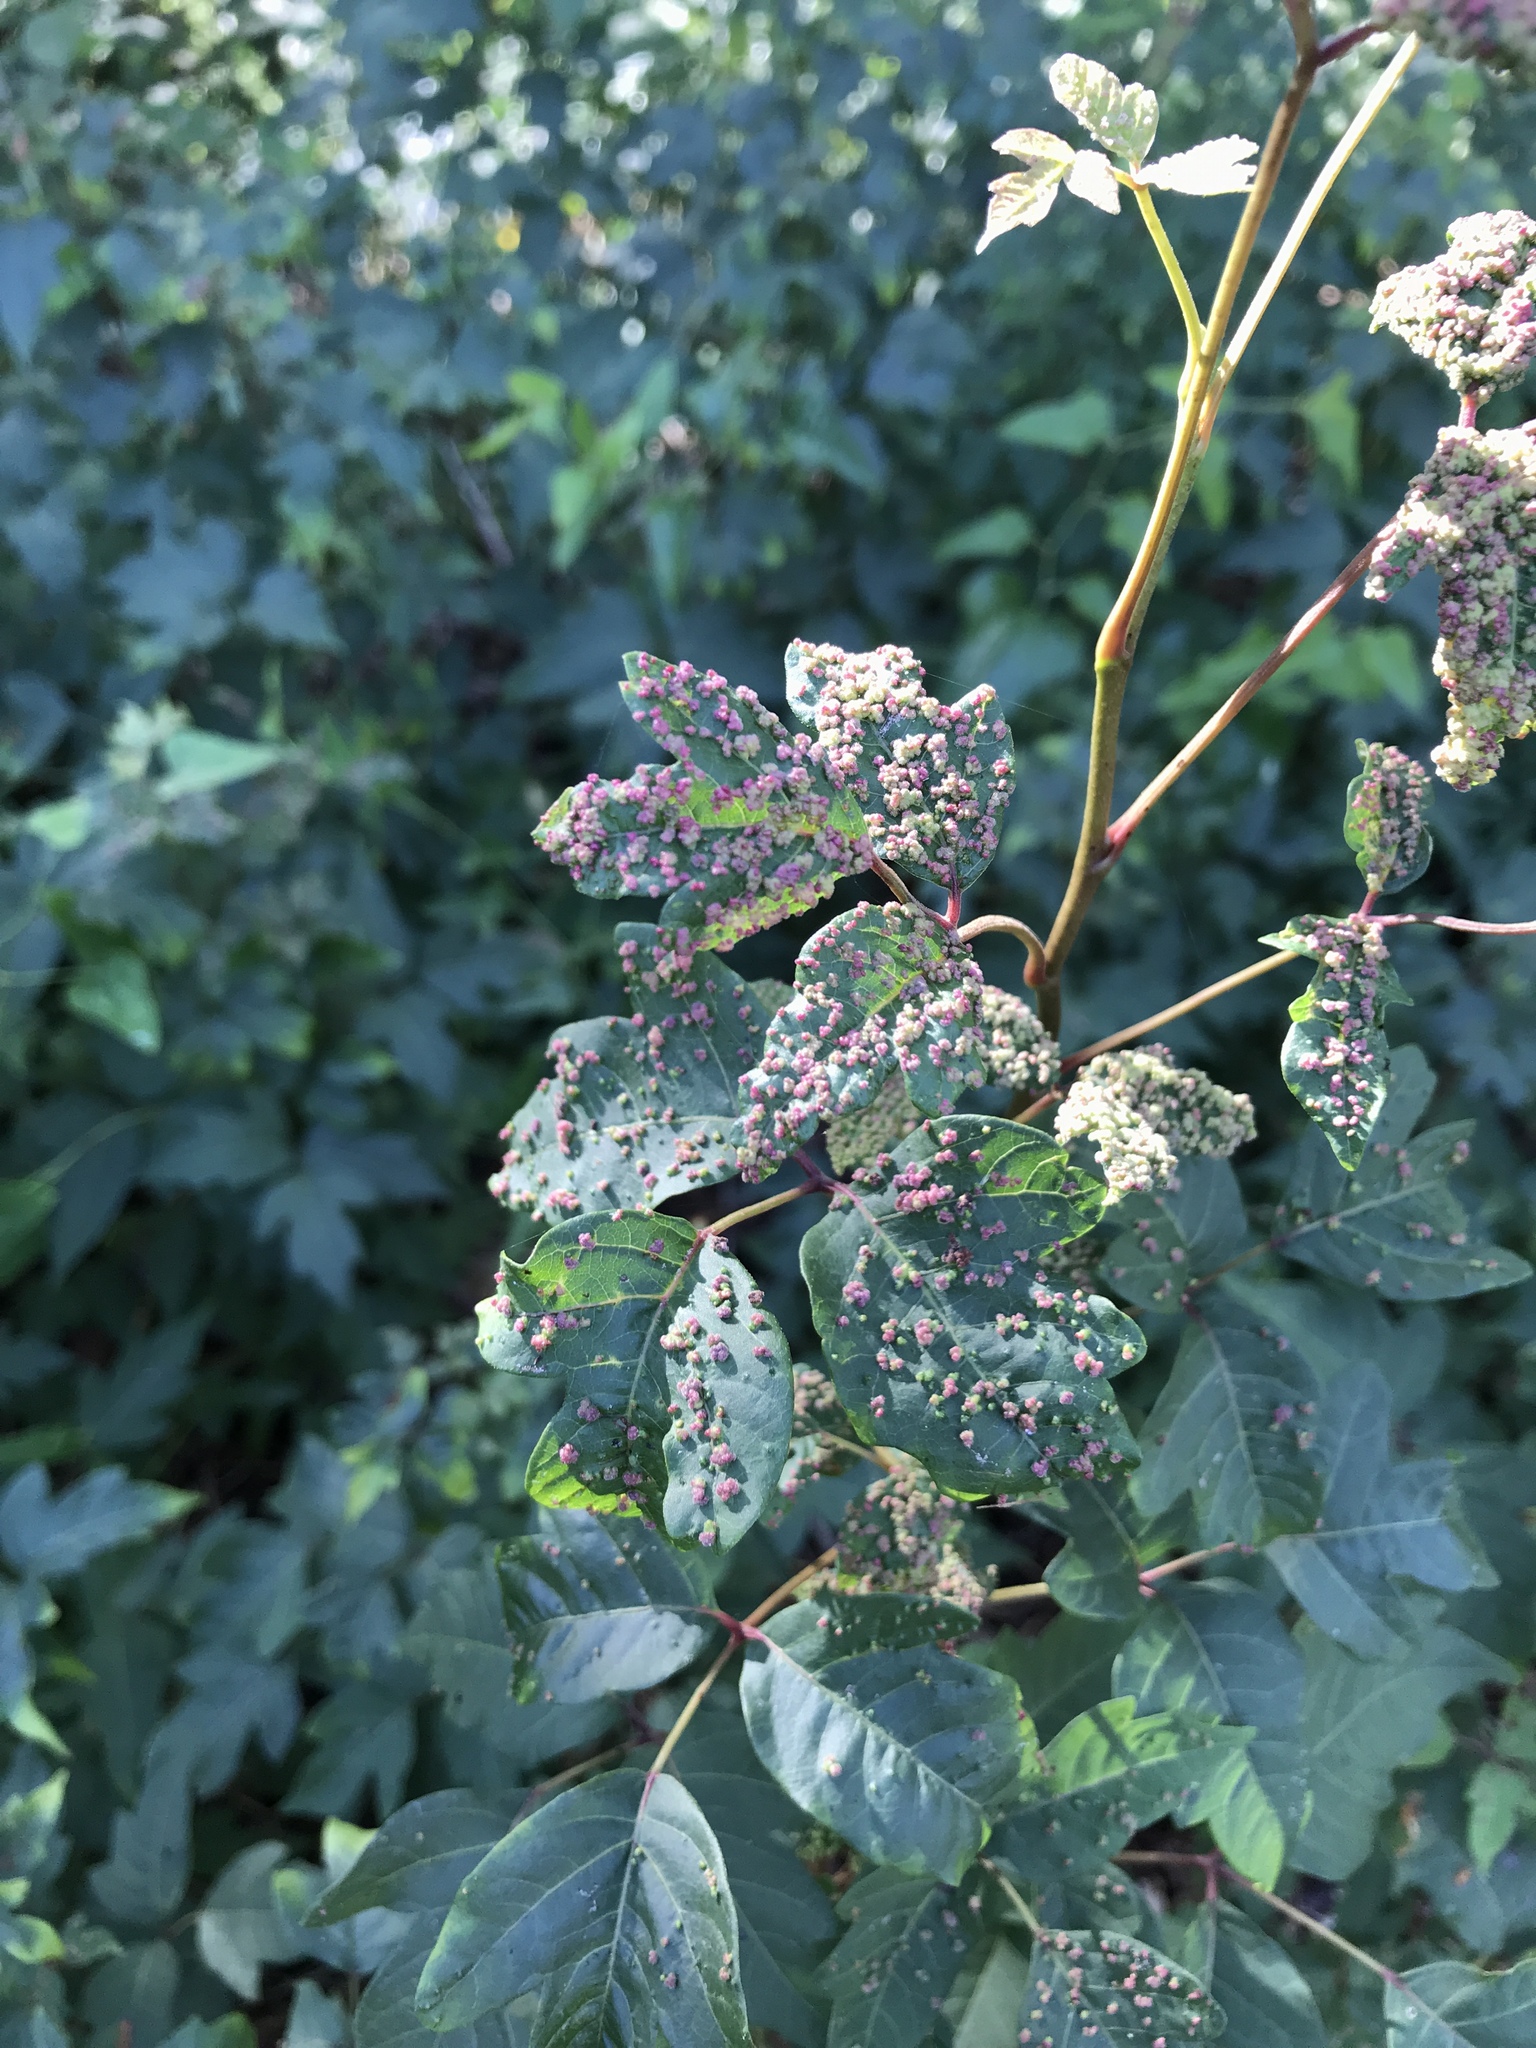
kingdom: Animalia
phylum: Arthropoda
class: Arachnida
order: Trombidiformes
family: Eriophyidae
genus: Aculops
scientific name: Aculops
